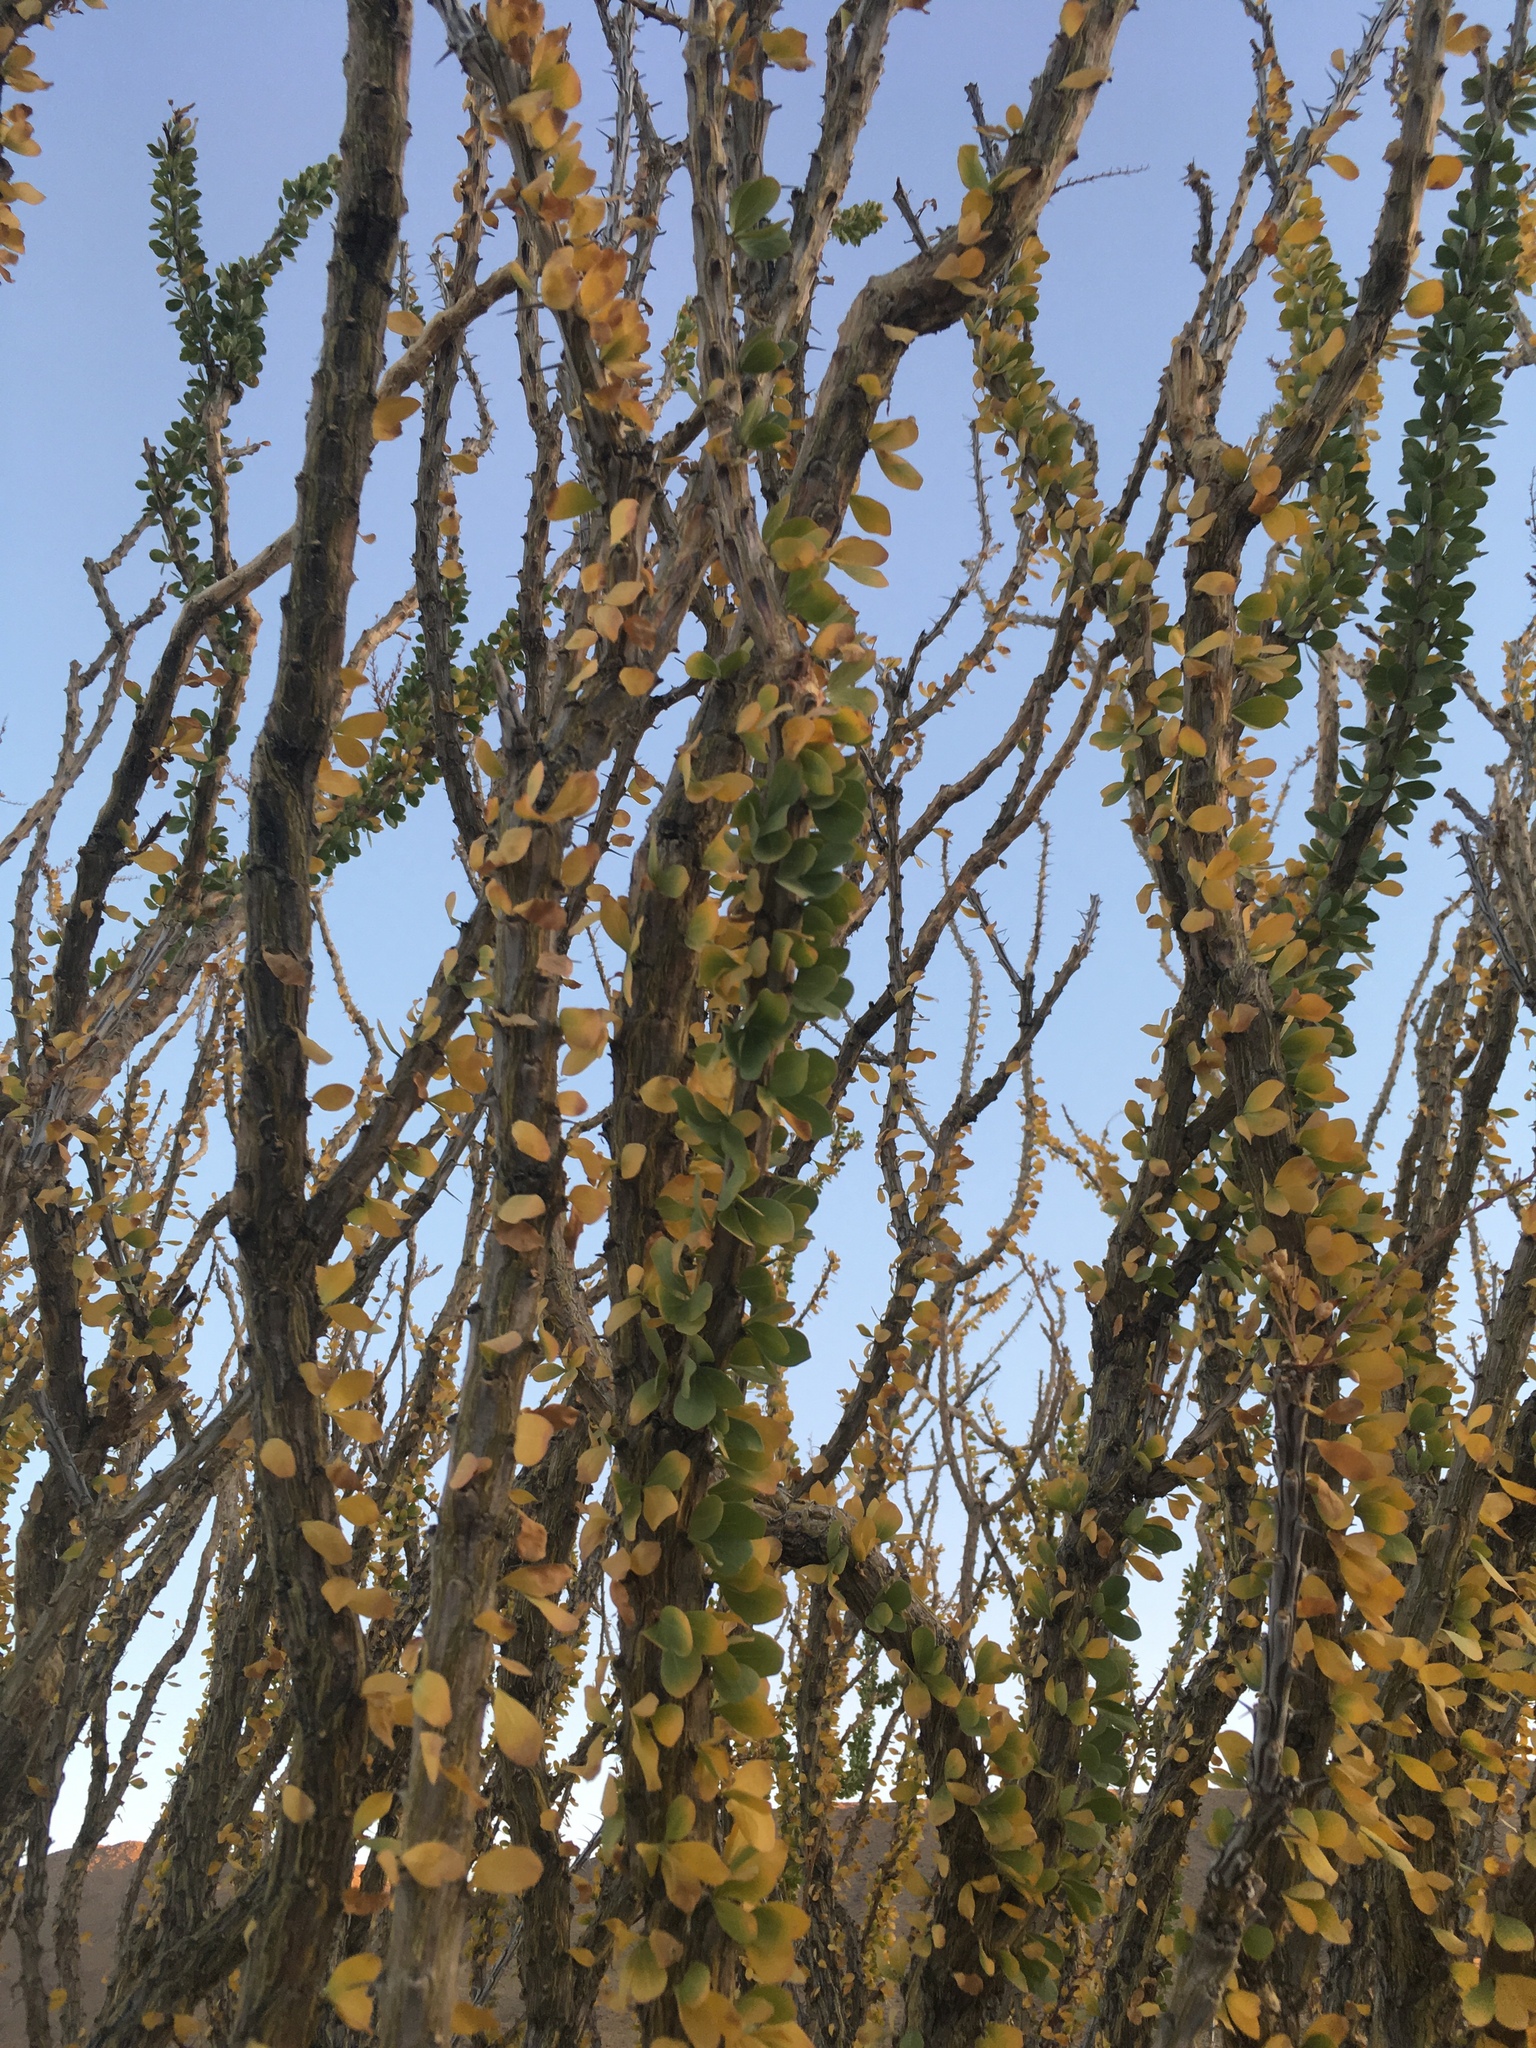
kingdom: Plantae
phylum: Tracheophyta
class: Magnoliopsida
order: Ericales
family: Fouquieriaceae
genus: Fouquieria
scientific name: Fouquieria splendens
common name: Vine-cactus
